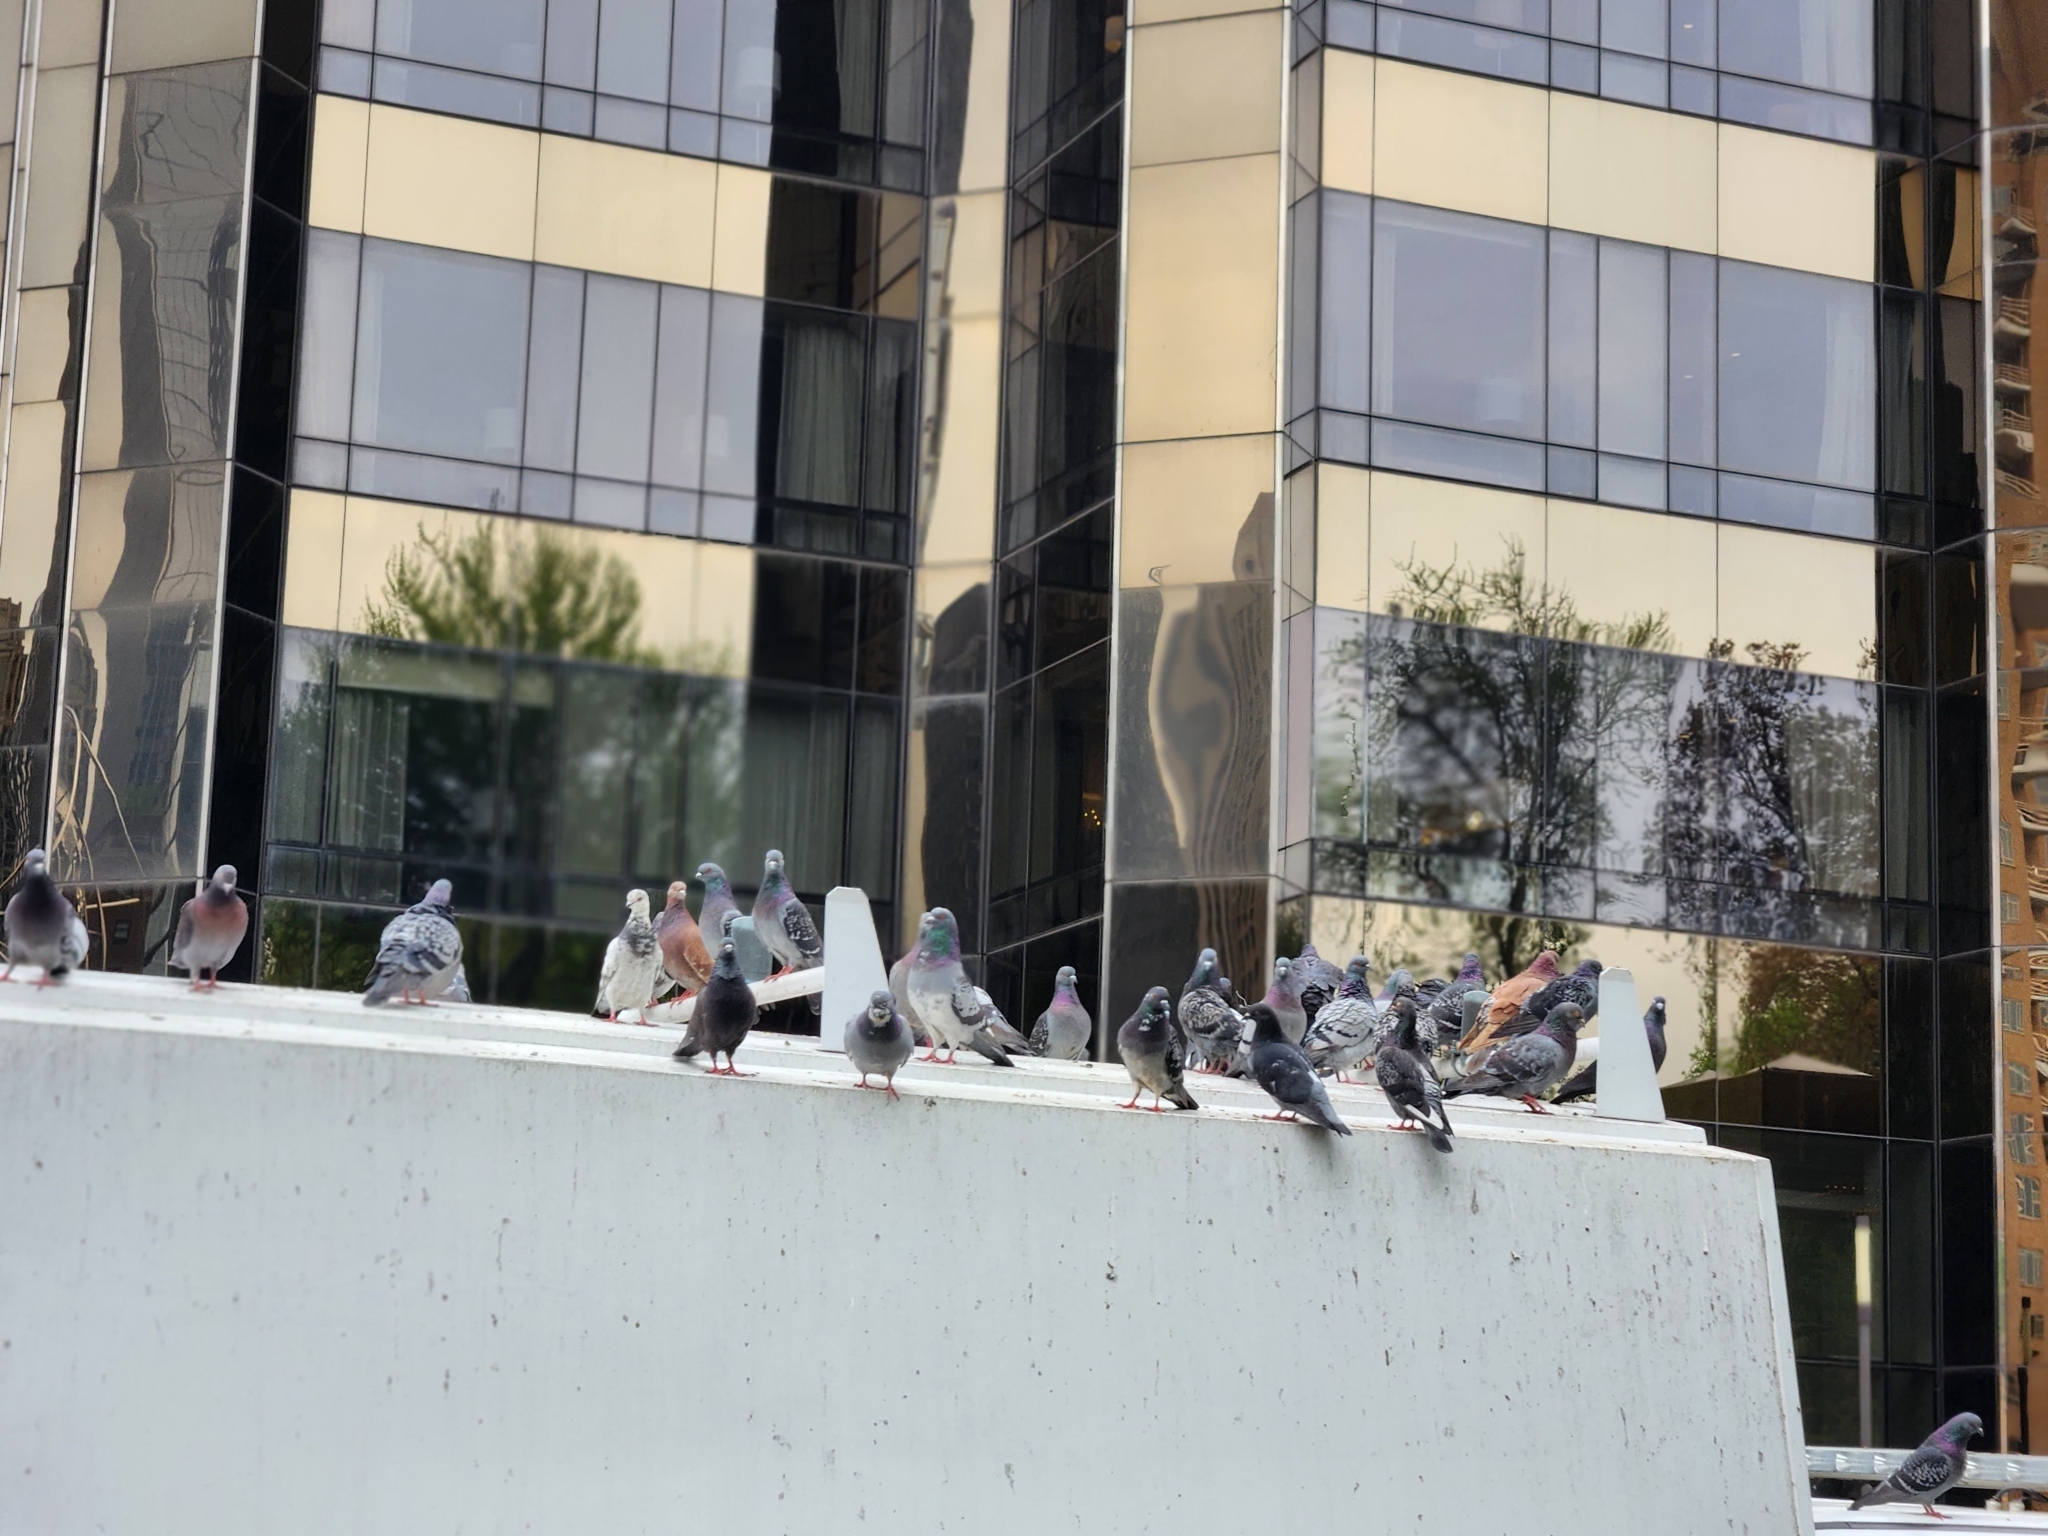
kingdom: Animalia
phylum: Chordata
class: Aves
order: Columbiformes
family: Columbidae
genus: Columba
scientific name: Columba livia
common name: Rock pigeon
